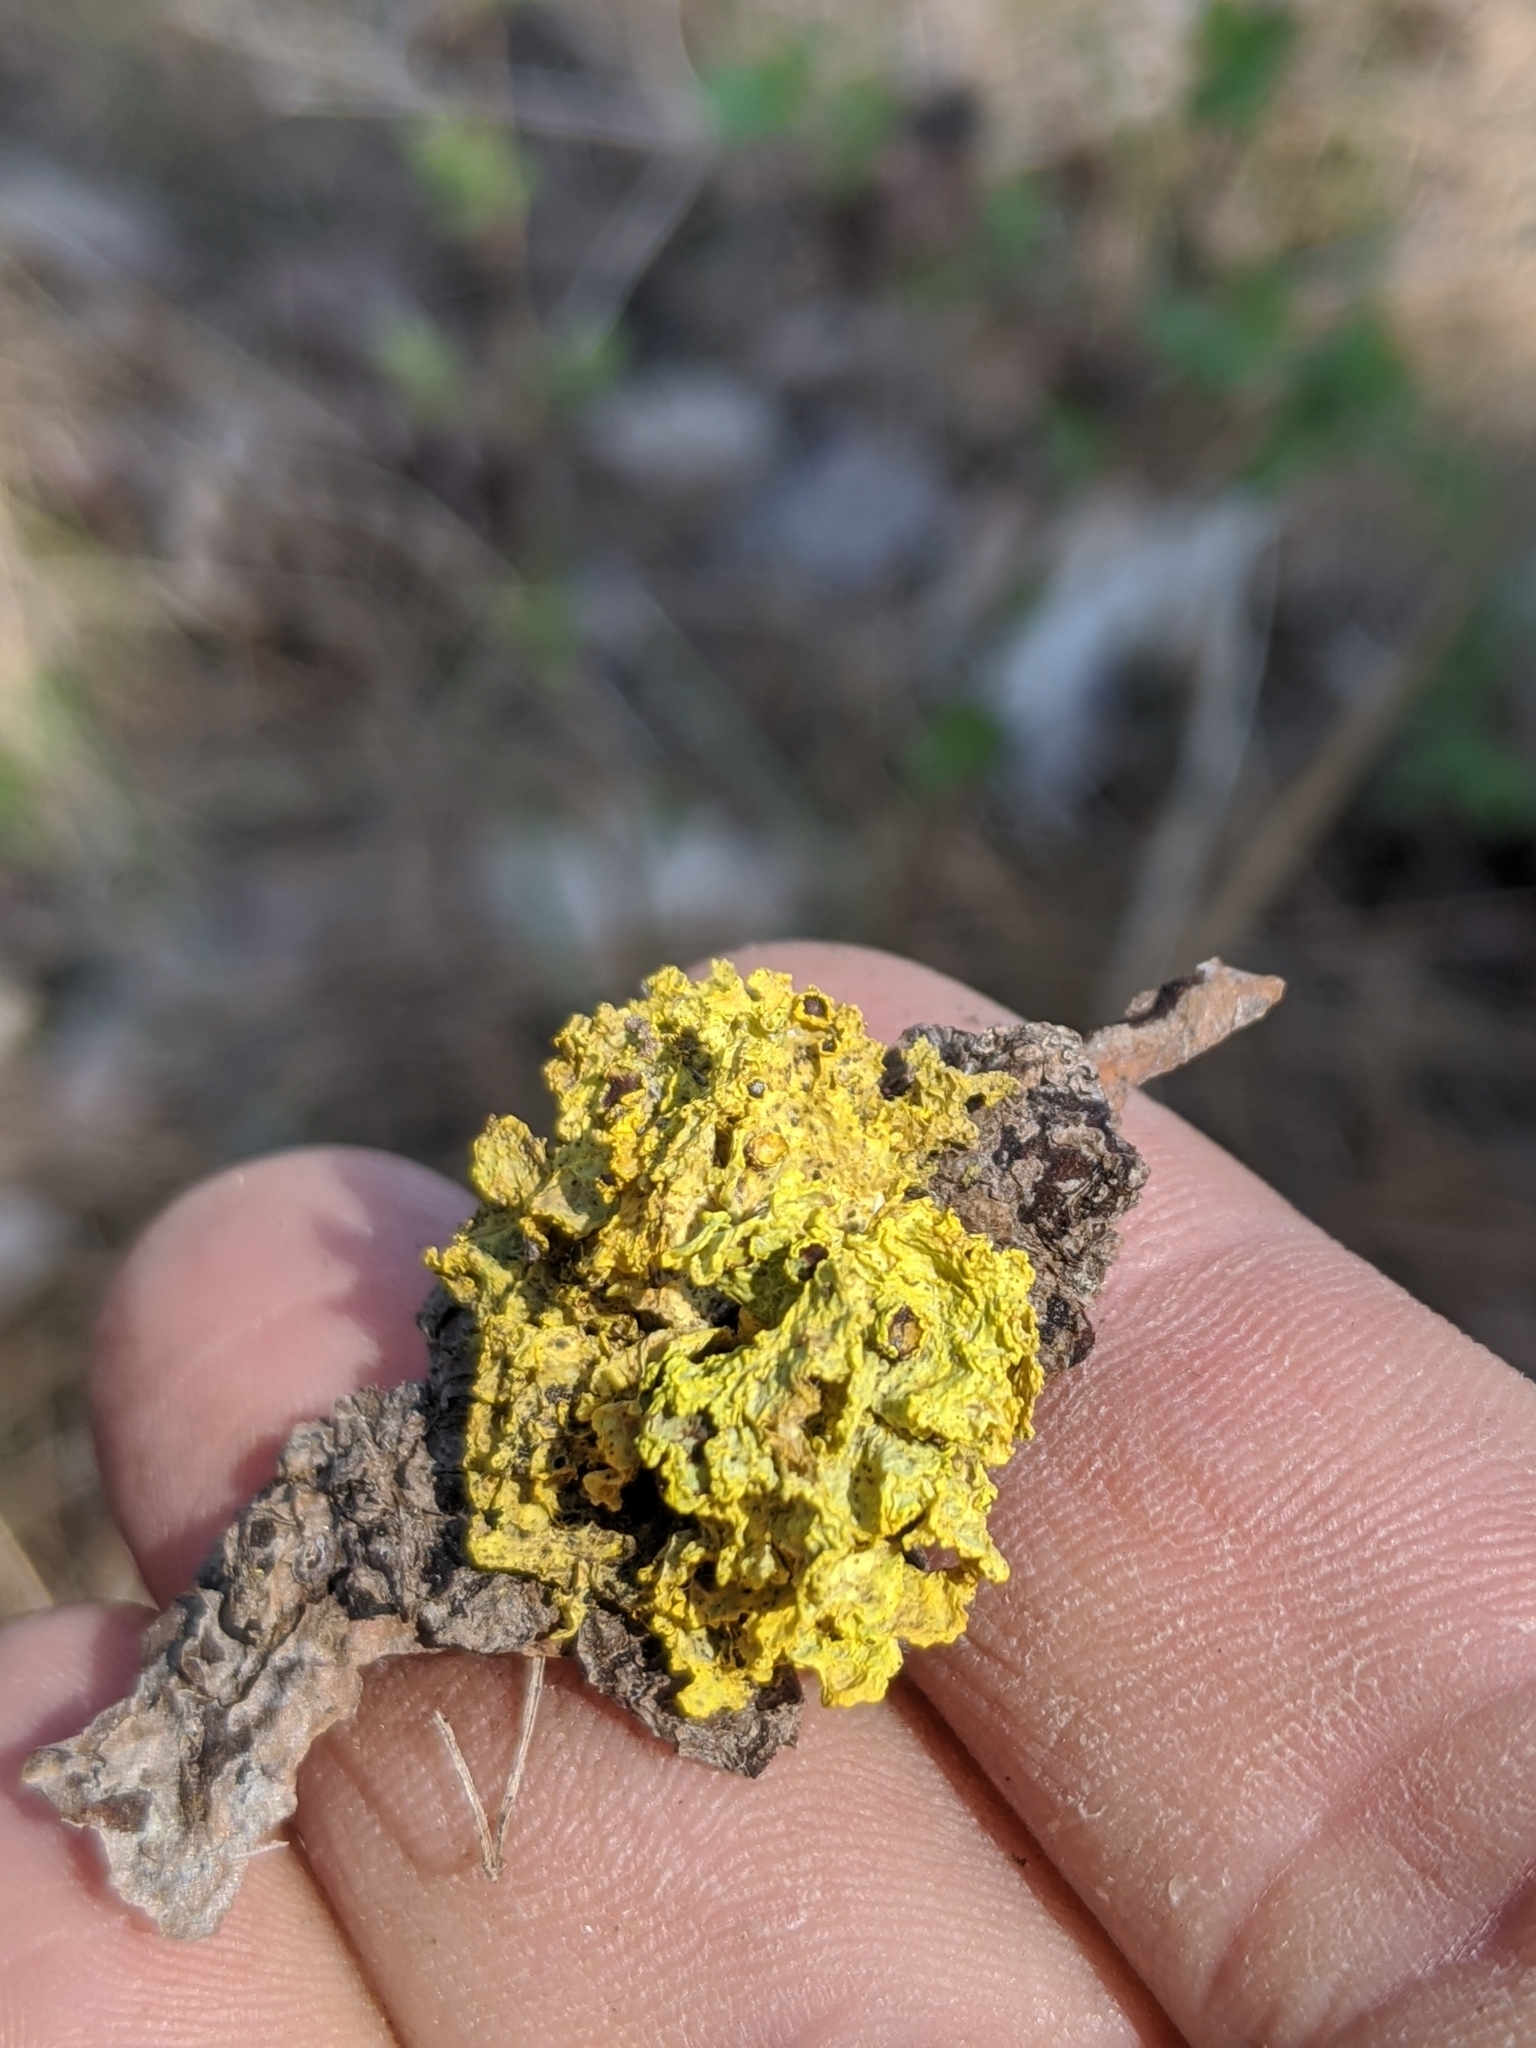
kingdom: Fungi
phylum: Ascomycota
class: Lecanoromycetes
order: Lecanorales
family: Parmeliaceae
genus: Vulpicida
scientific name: Vulpicida canadensis
